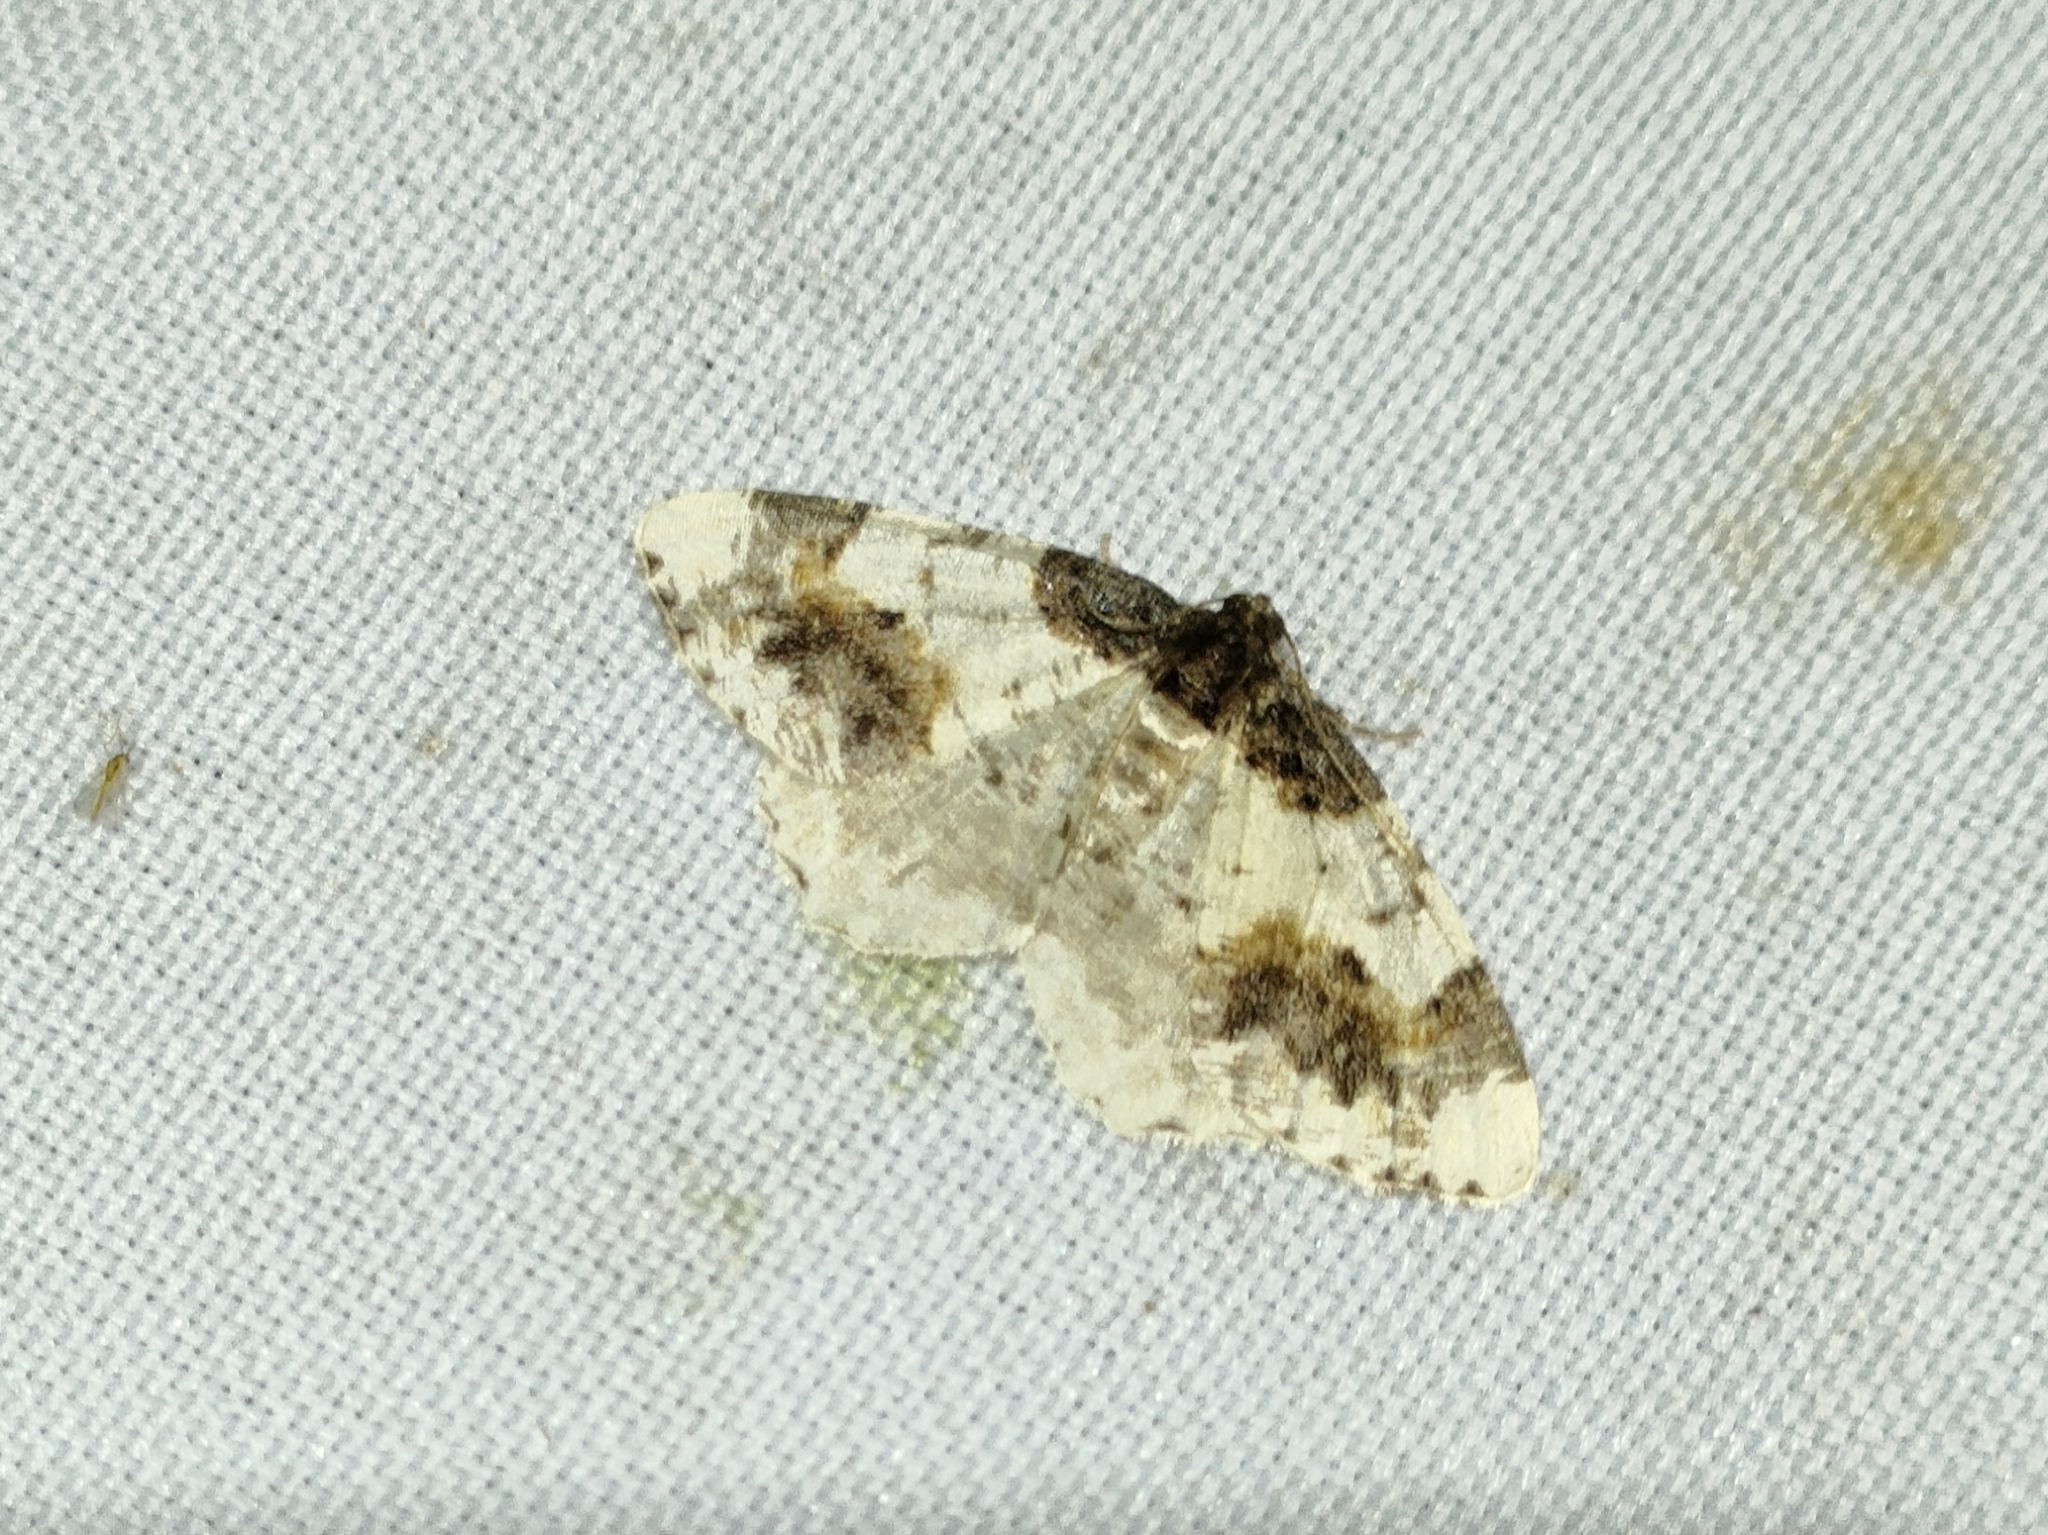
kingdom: Animalia
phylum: Arthropoda
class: Insecta
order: Lepidoptera
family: Geometridae
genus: Ligdia
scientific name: Ligdia adustata
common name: Scorched carpet
